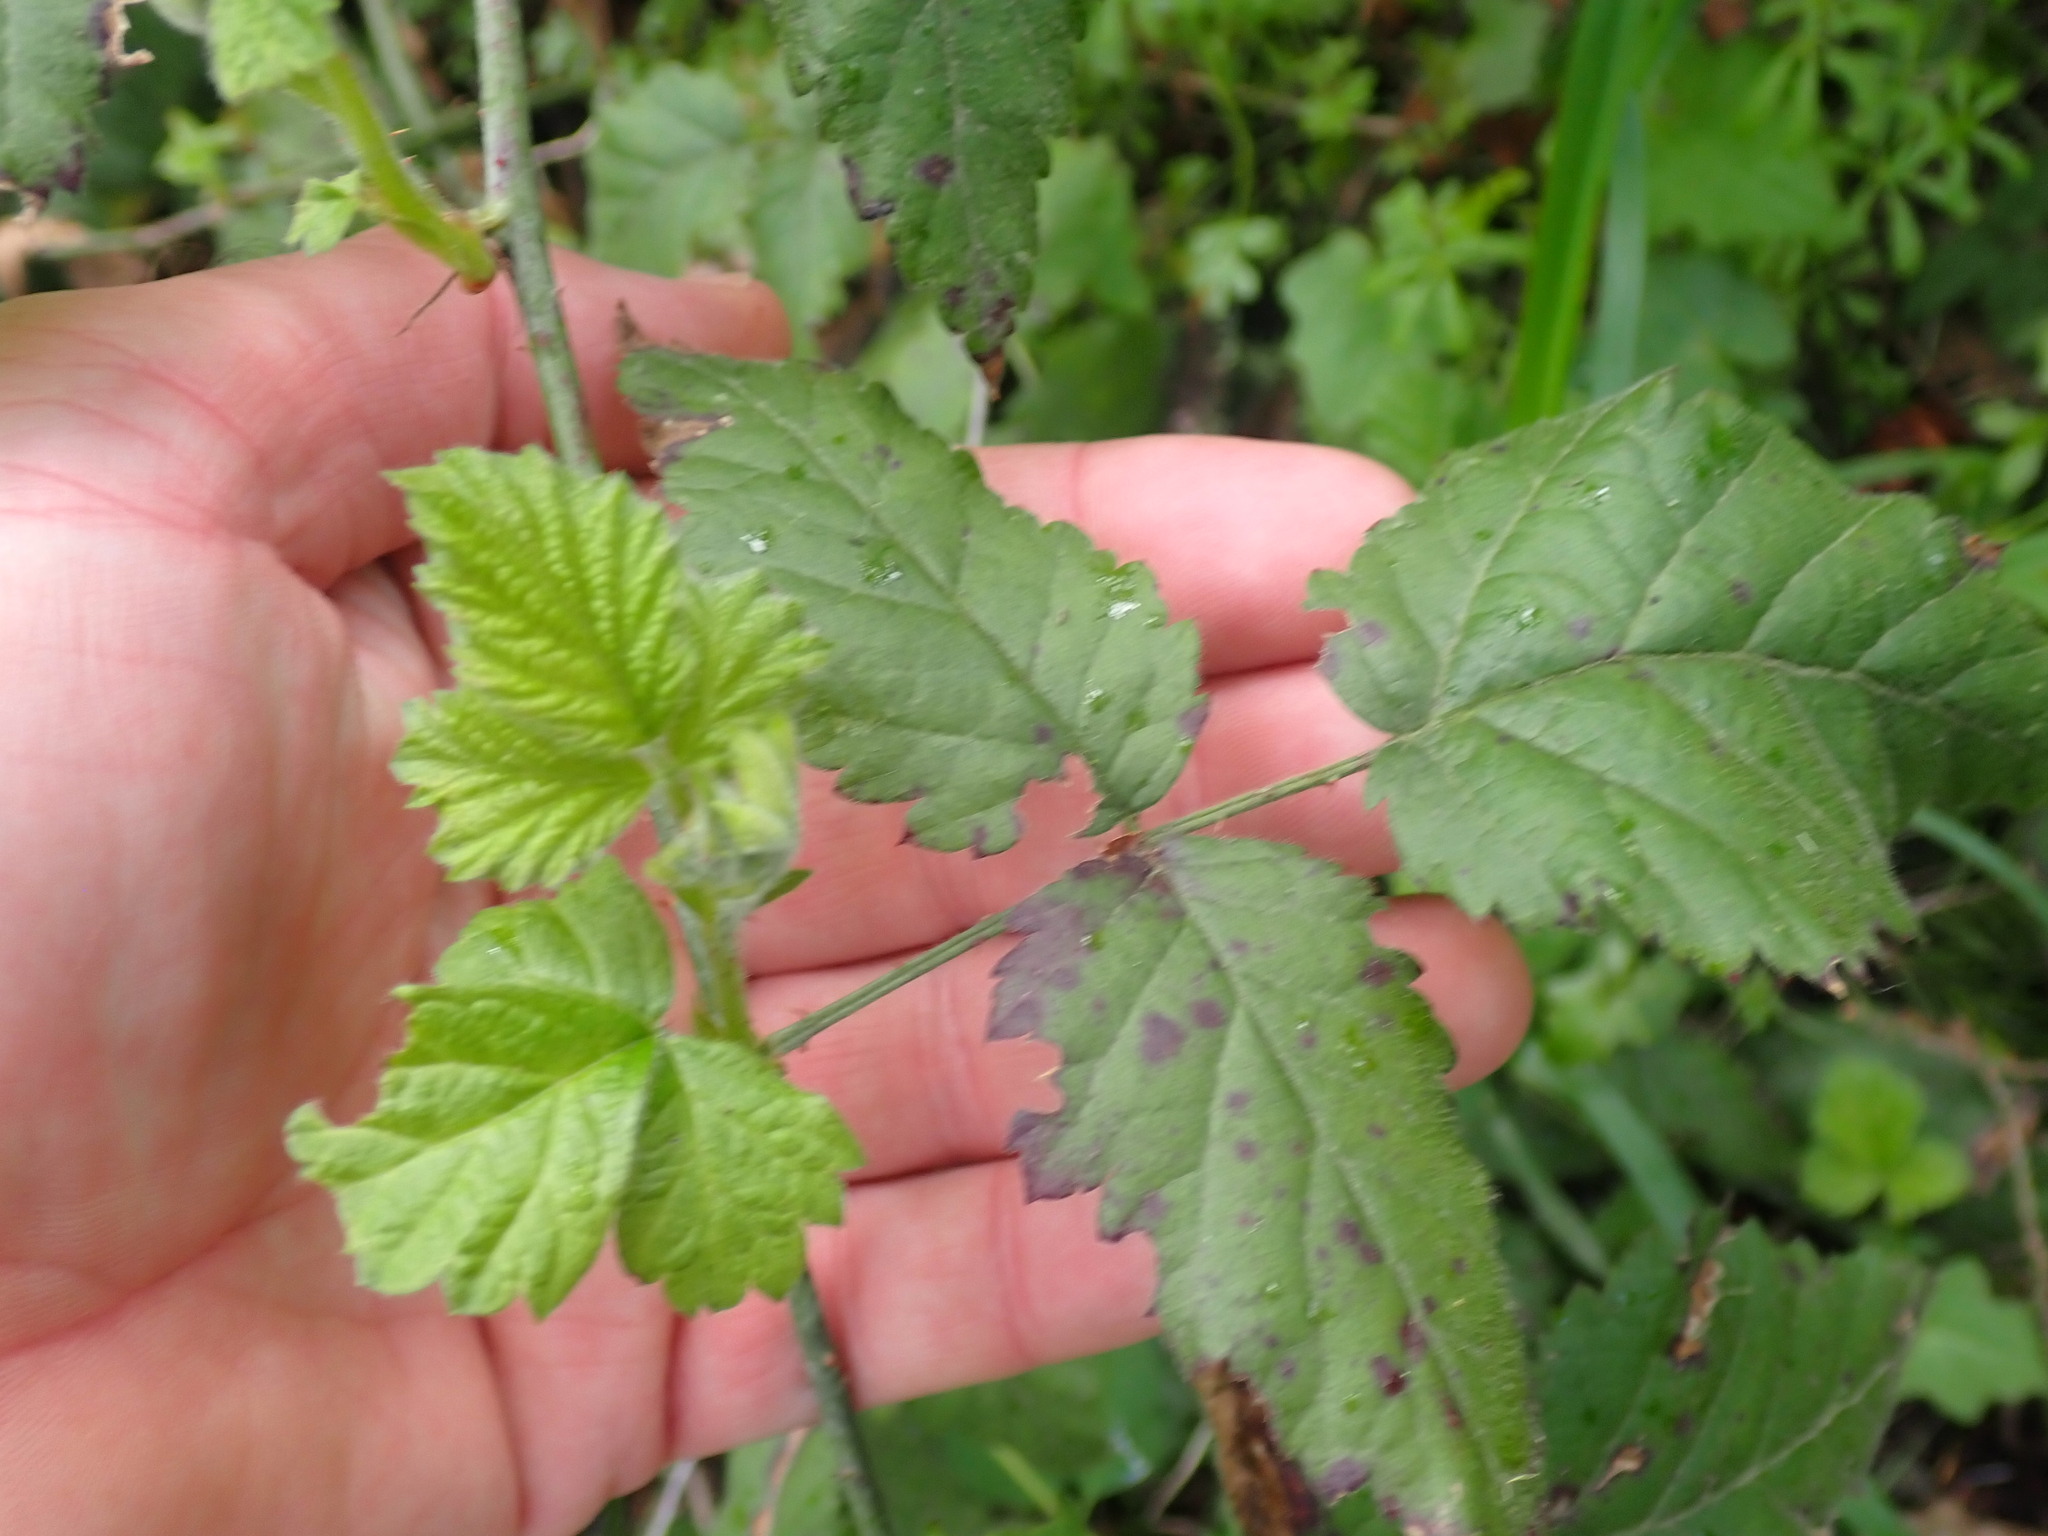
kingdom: Plantae
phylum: Tracheophyta
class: Magnoliopsida
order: Rosales
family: Rosaceae
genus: Rubus
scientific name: Rubus ursinus
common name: Pacific blackberry
